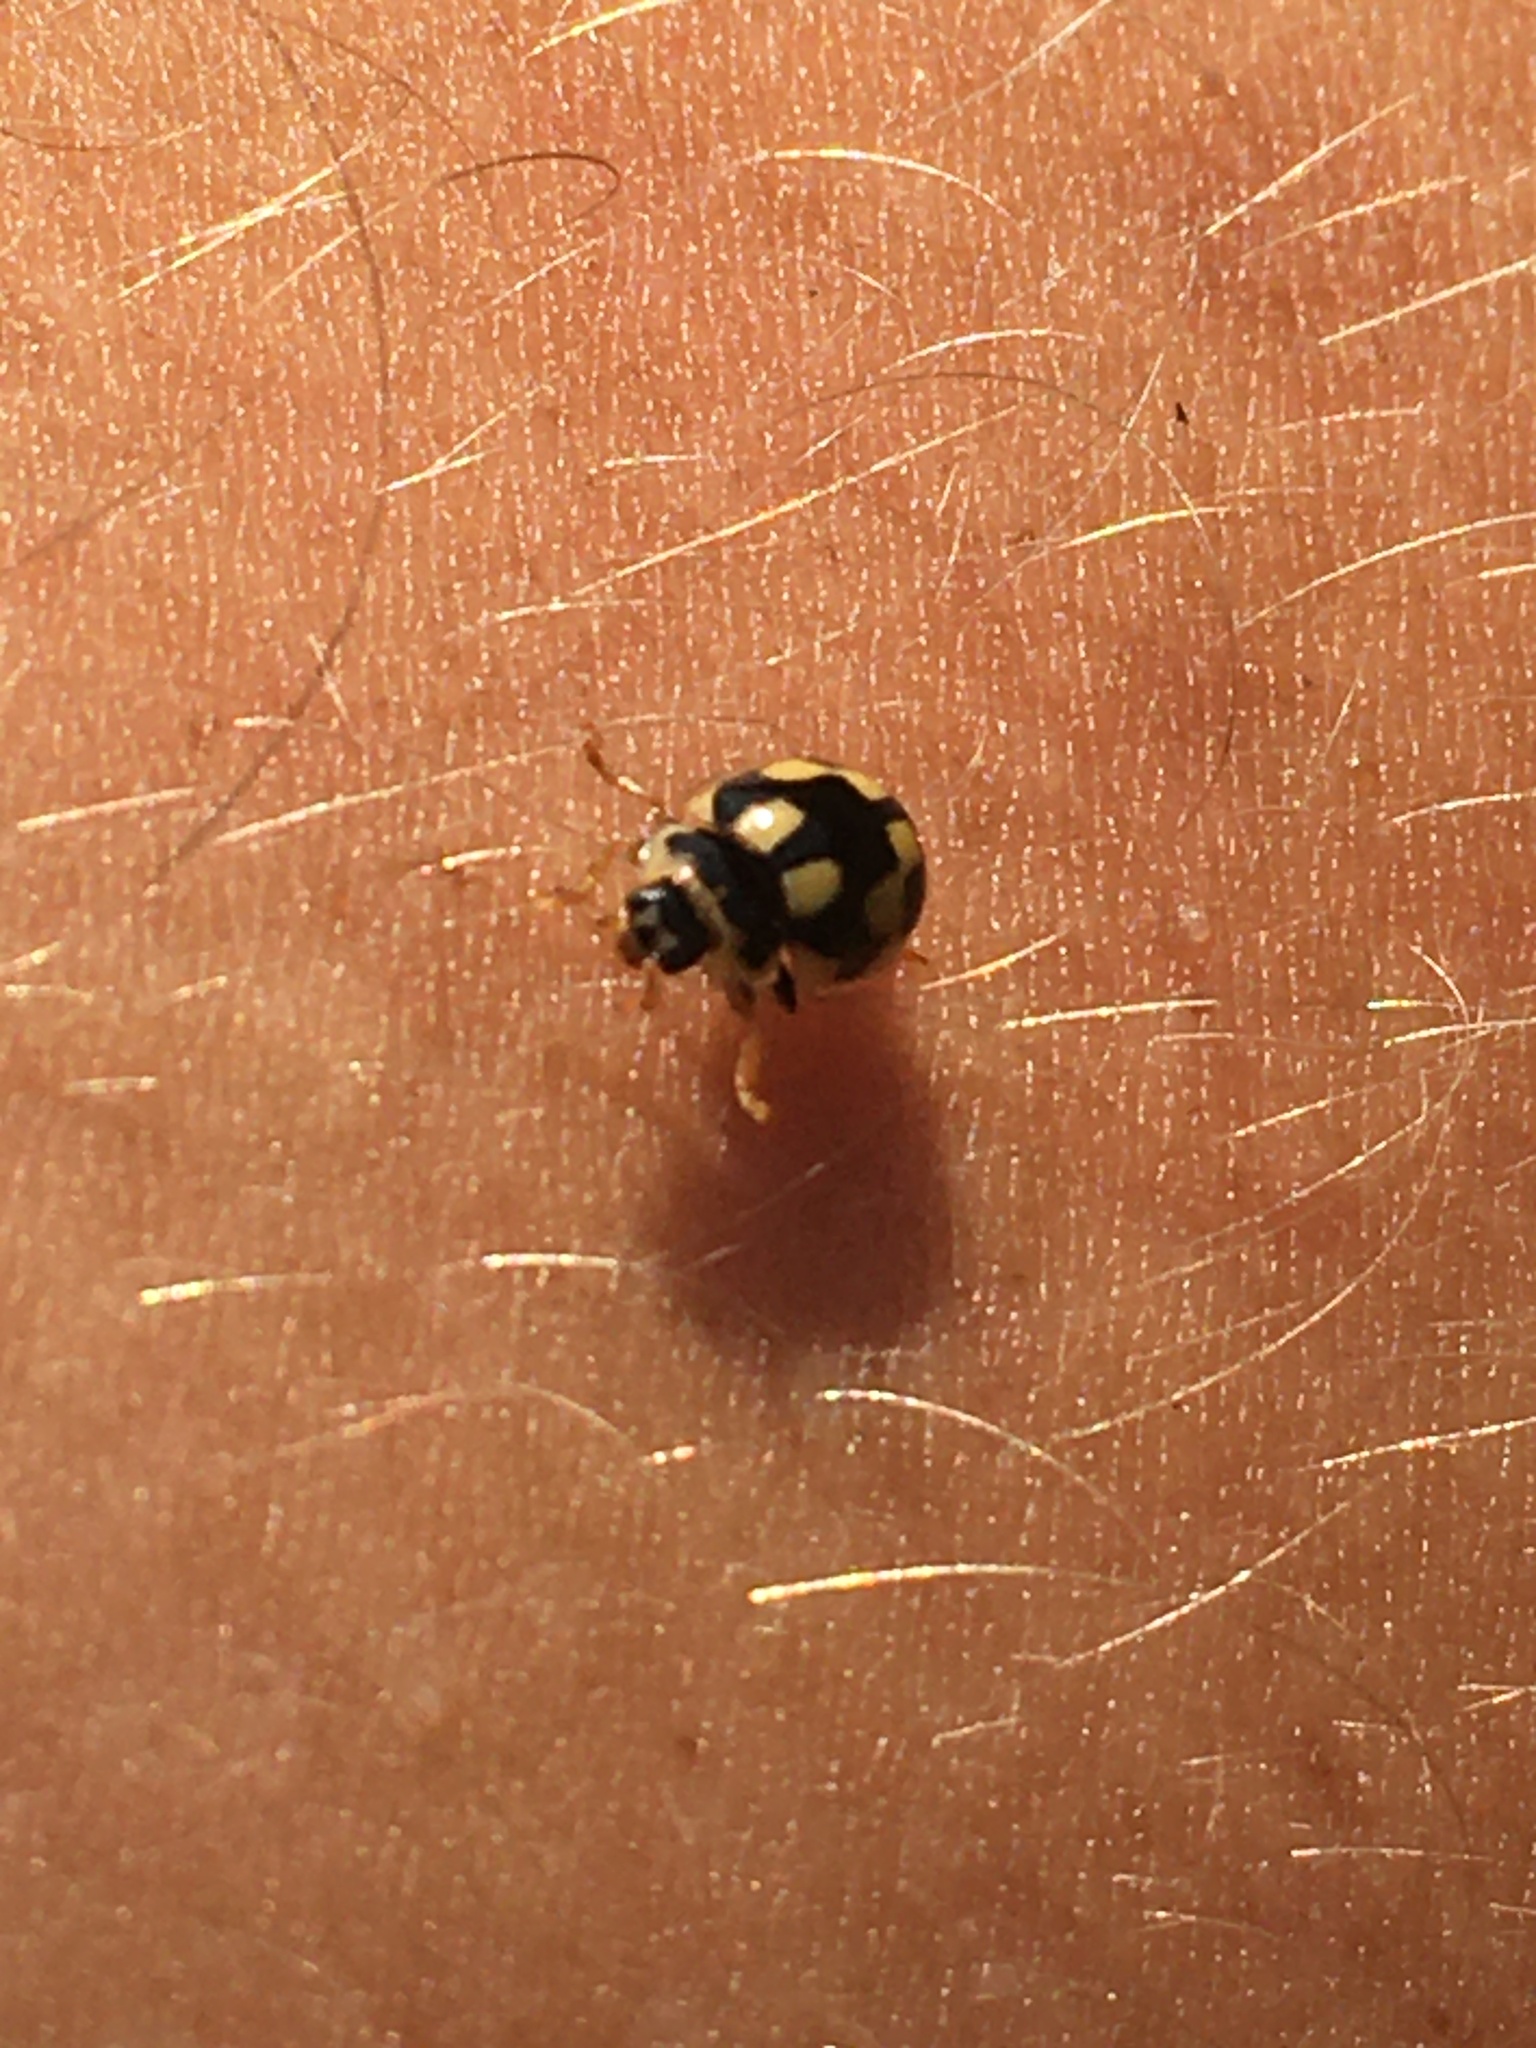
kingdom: Animalia
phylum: Arthropoda
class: Insecta
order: Coleoptera
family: Coccinellidae
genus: Propylaea
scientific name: Propylaea quatuordecimpunctata
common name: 14-spotted ladybird beetle
